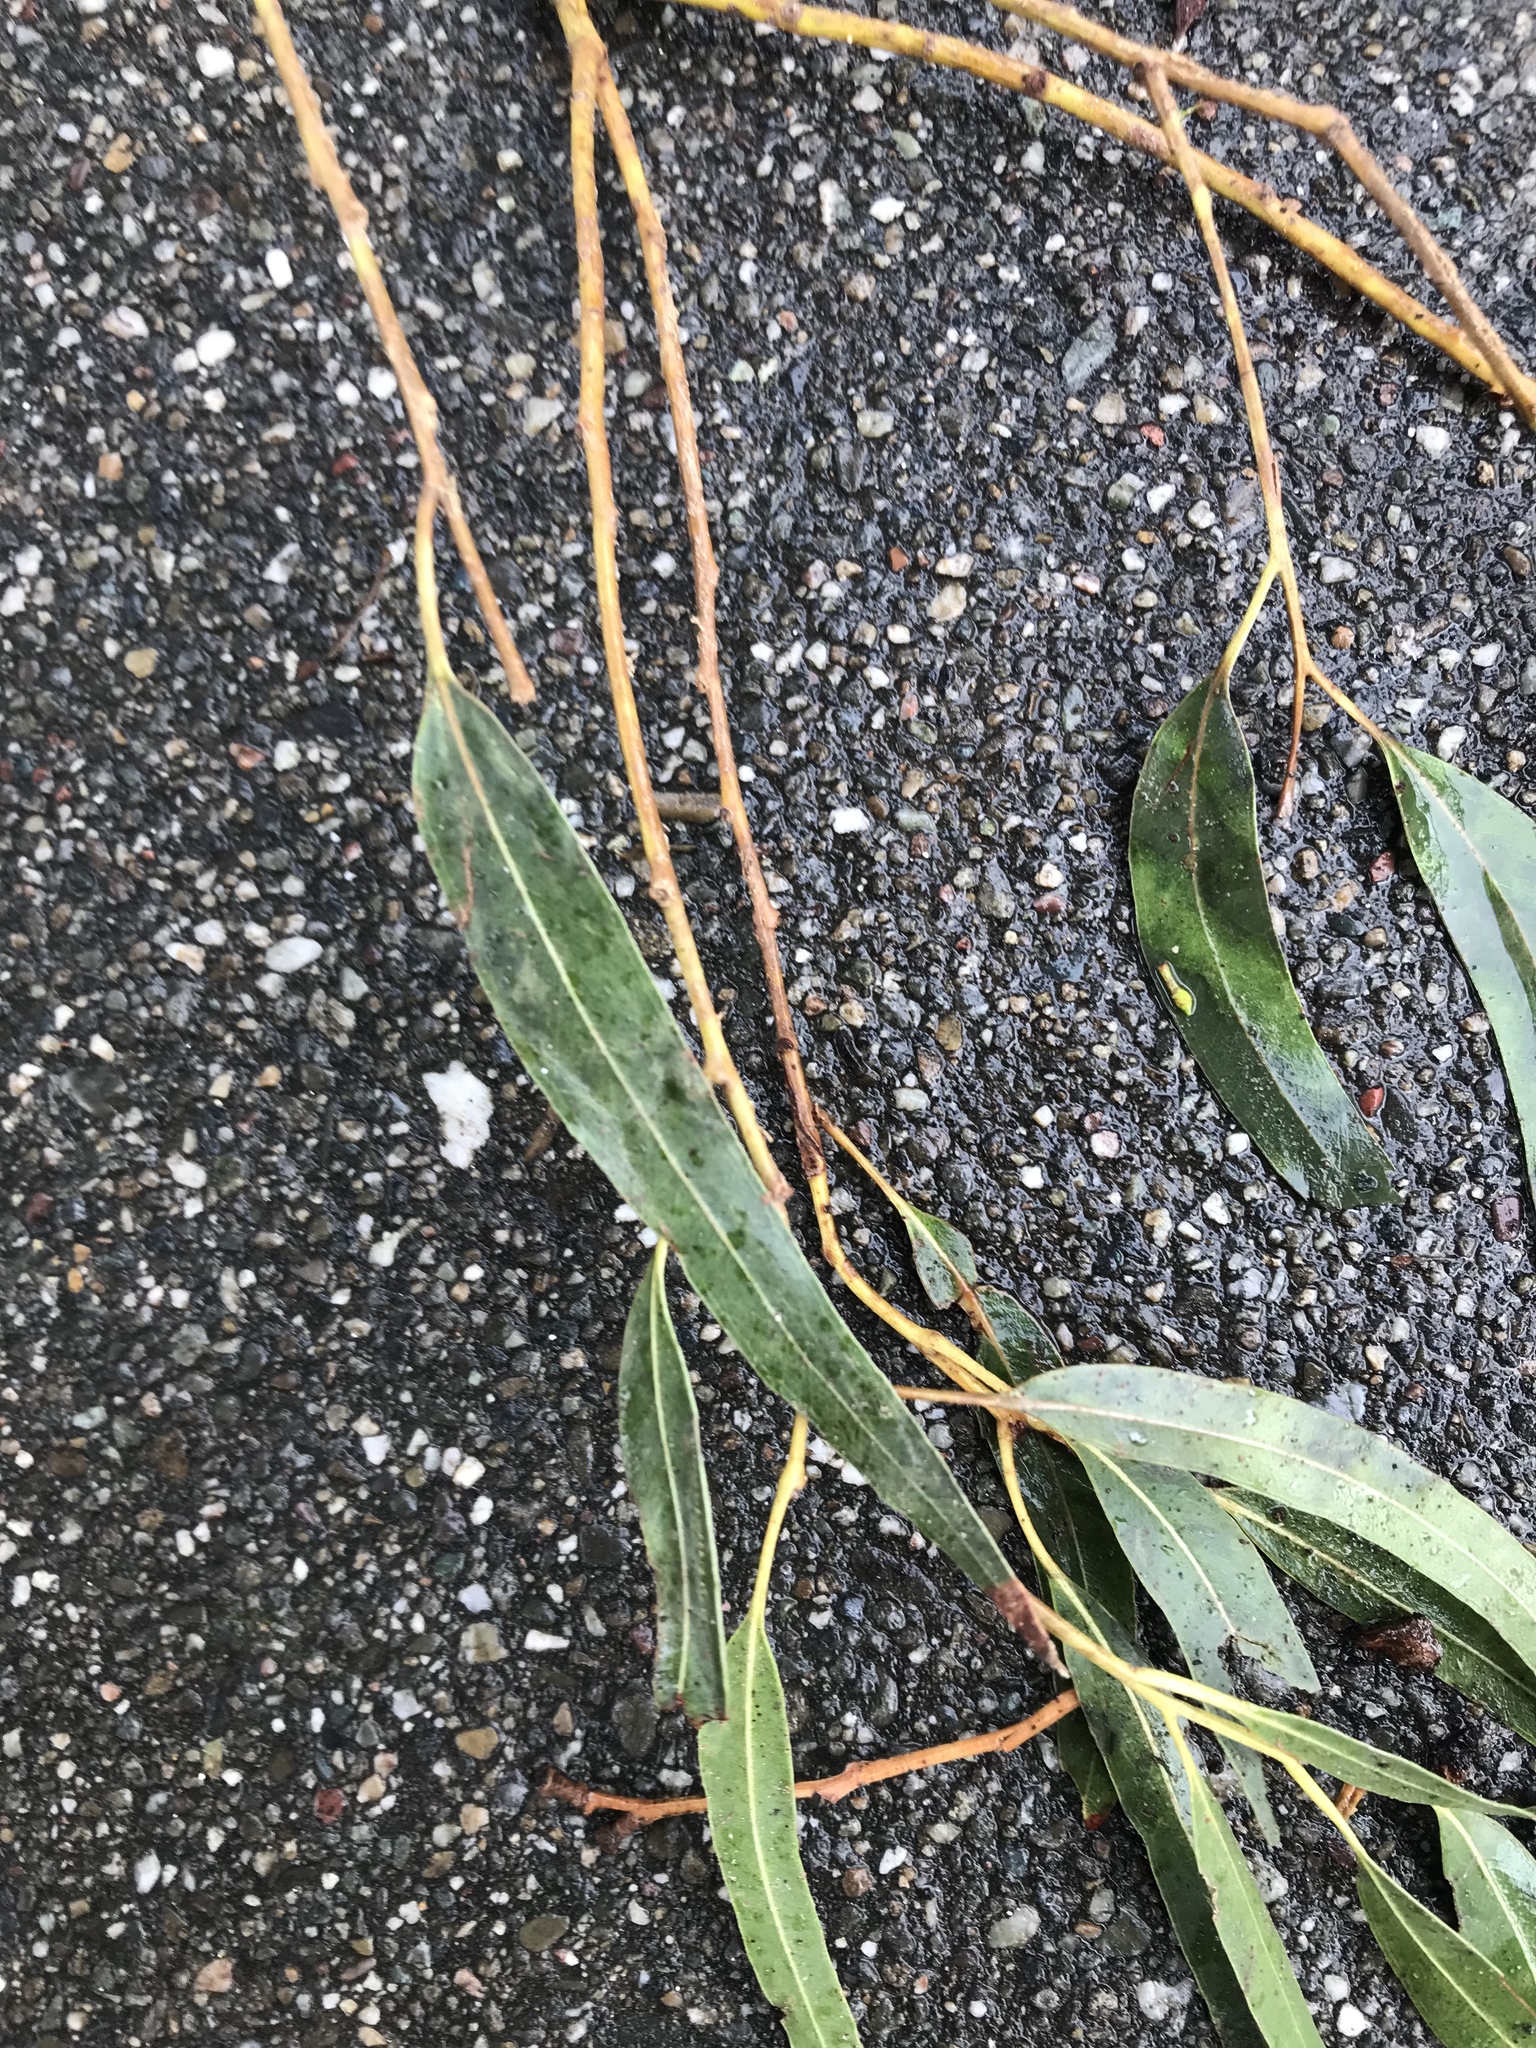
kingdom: Plantae
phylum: Tracheophyta
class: Magnoliopsida
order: Myrtales
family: Myrtaceae
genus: Eucalyptus
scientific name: Eucalyptus globulus
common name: Southern blue-gum
